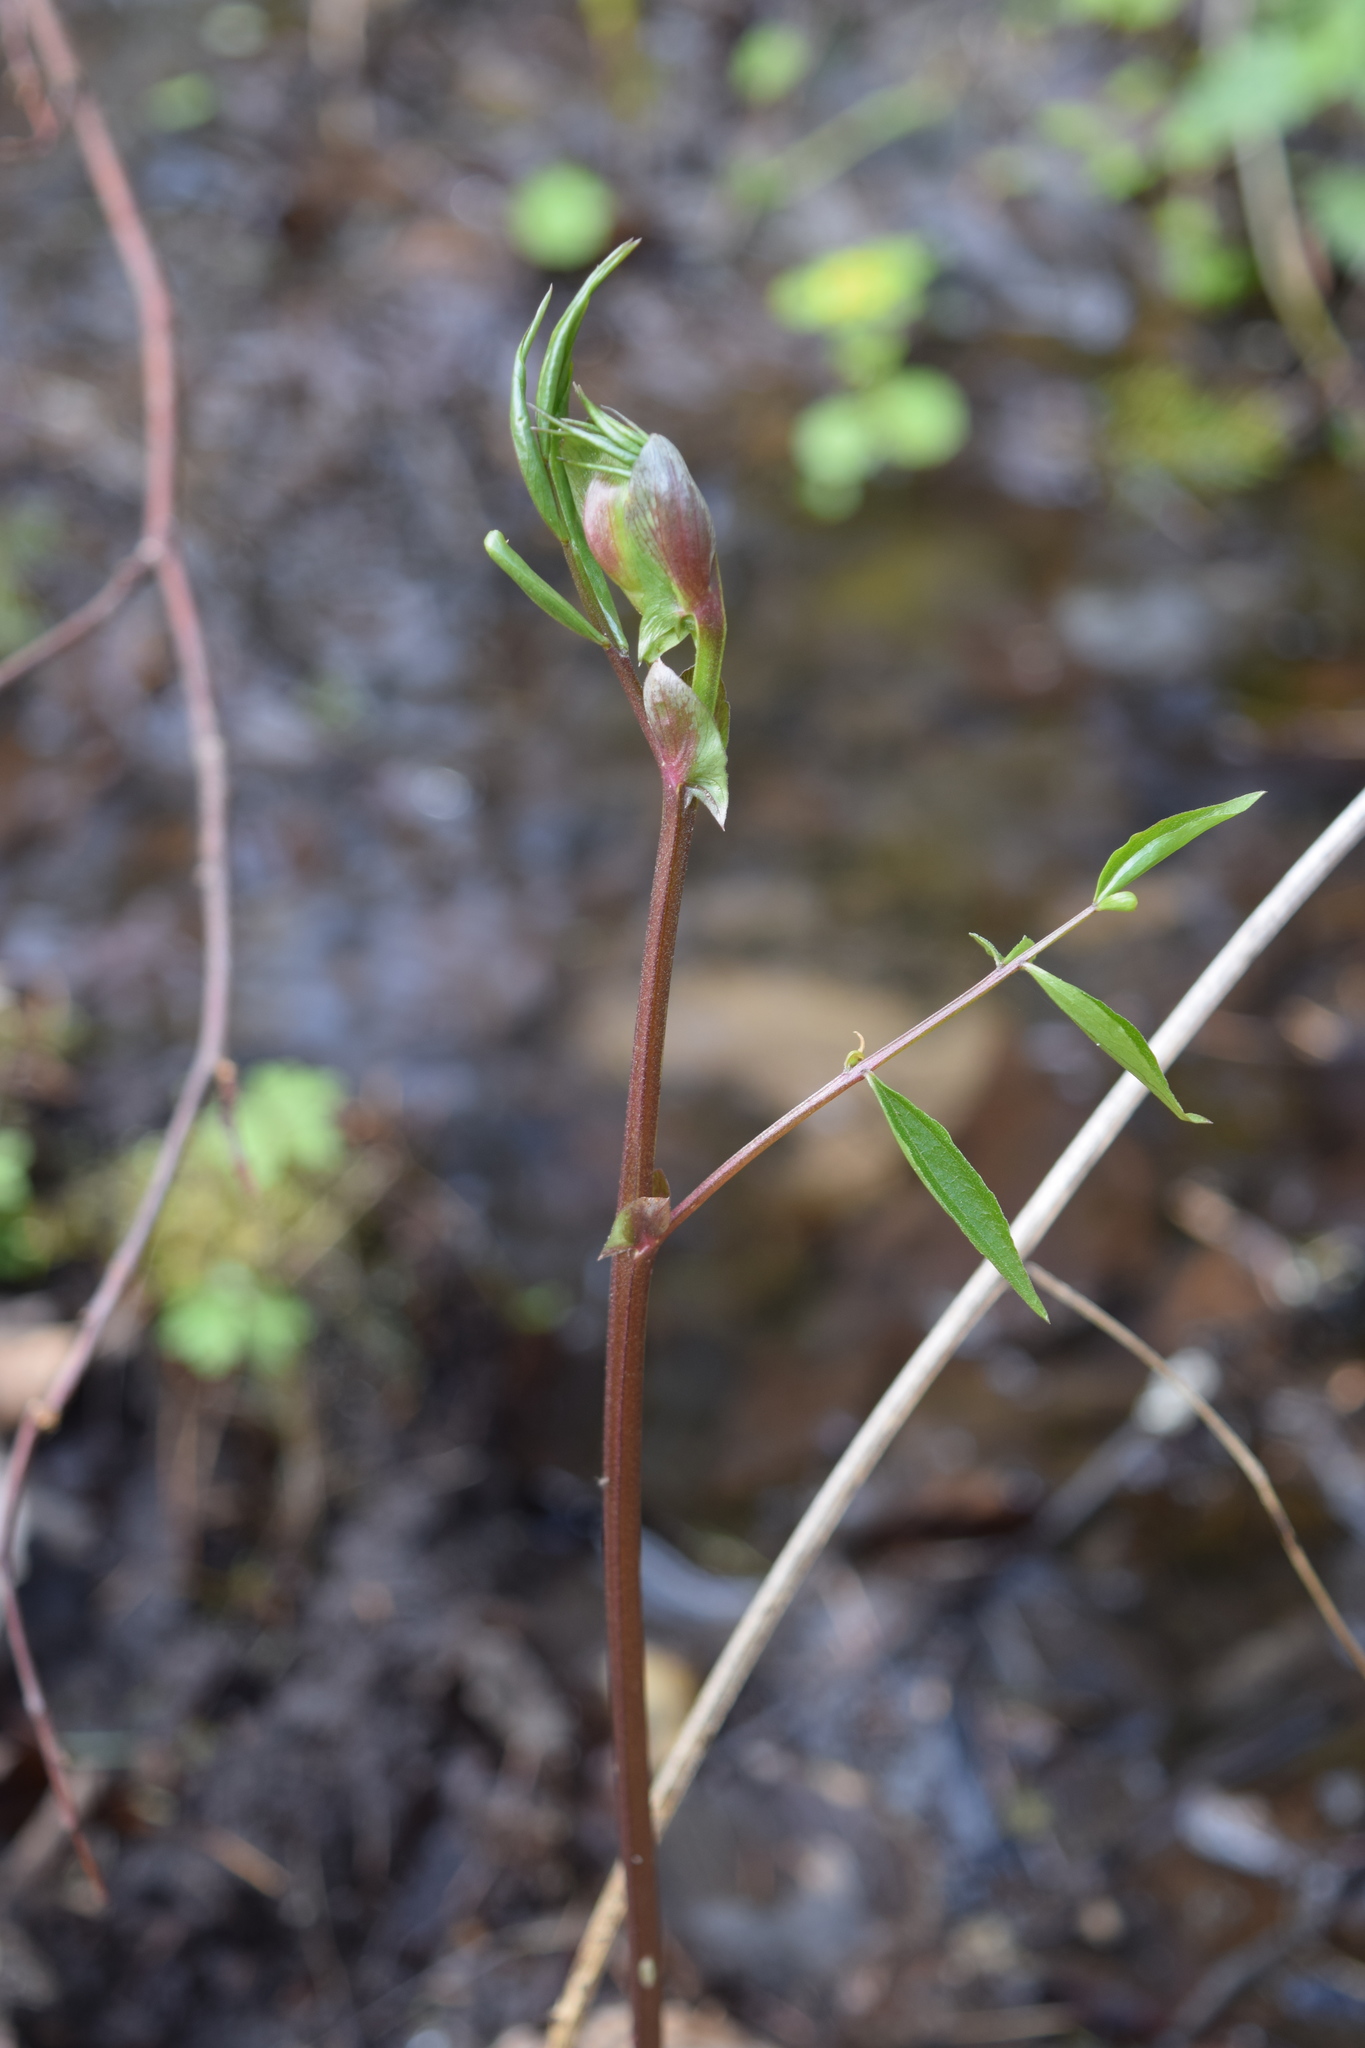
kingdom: Plantae
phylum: Tracheophyta
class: Magnoliopsida
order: Fabales
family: Fabaceae
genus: Lathyrus
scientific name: Lathyrus vernus
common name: Spring pea
